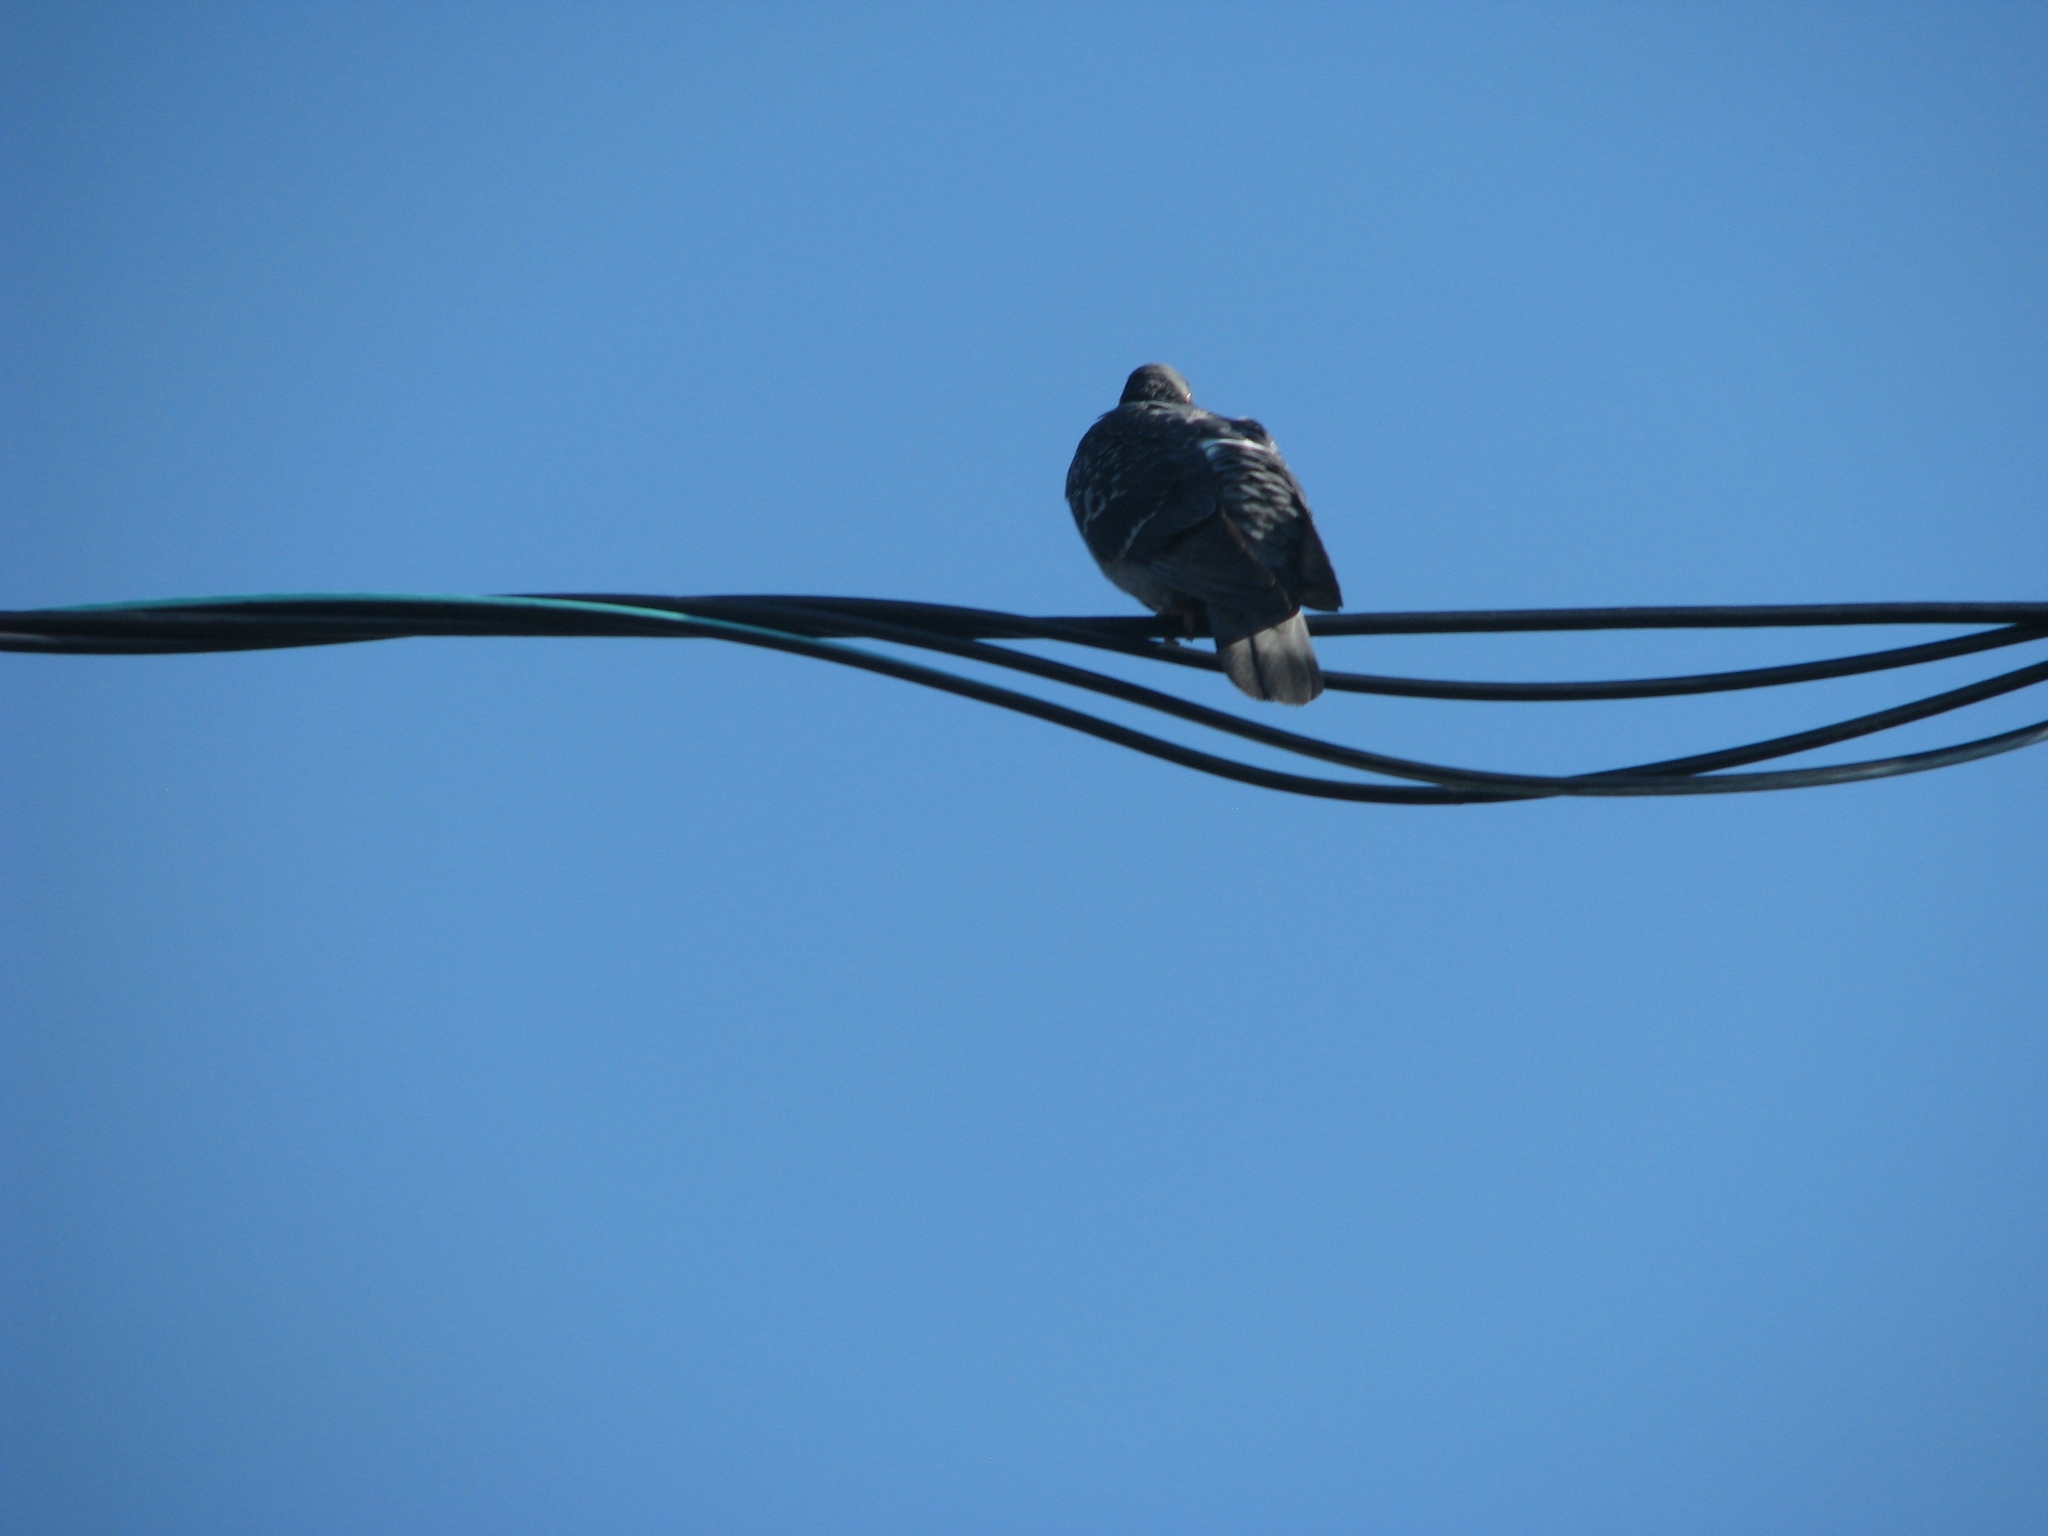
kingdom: Animalia
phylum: Chordata
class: Aves
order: Columbiformes
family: Columbidae
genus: Columba
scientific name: Columba livia
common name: Rock pigeon
